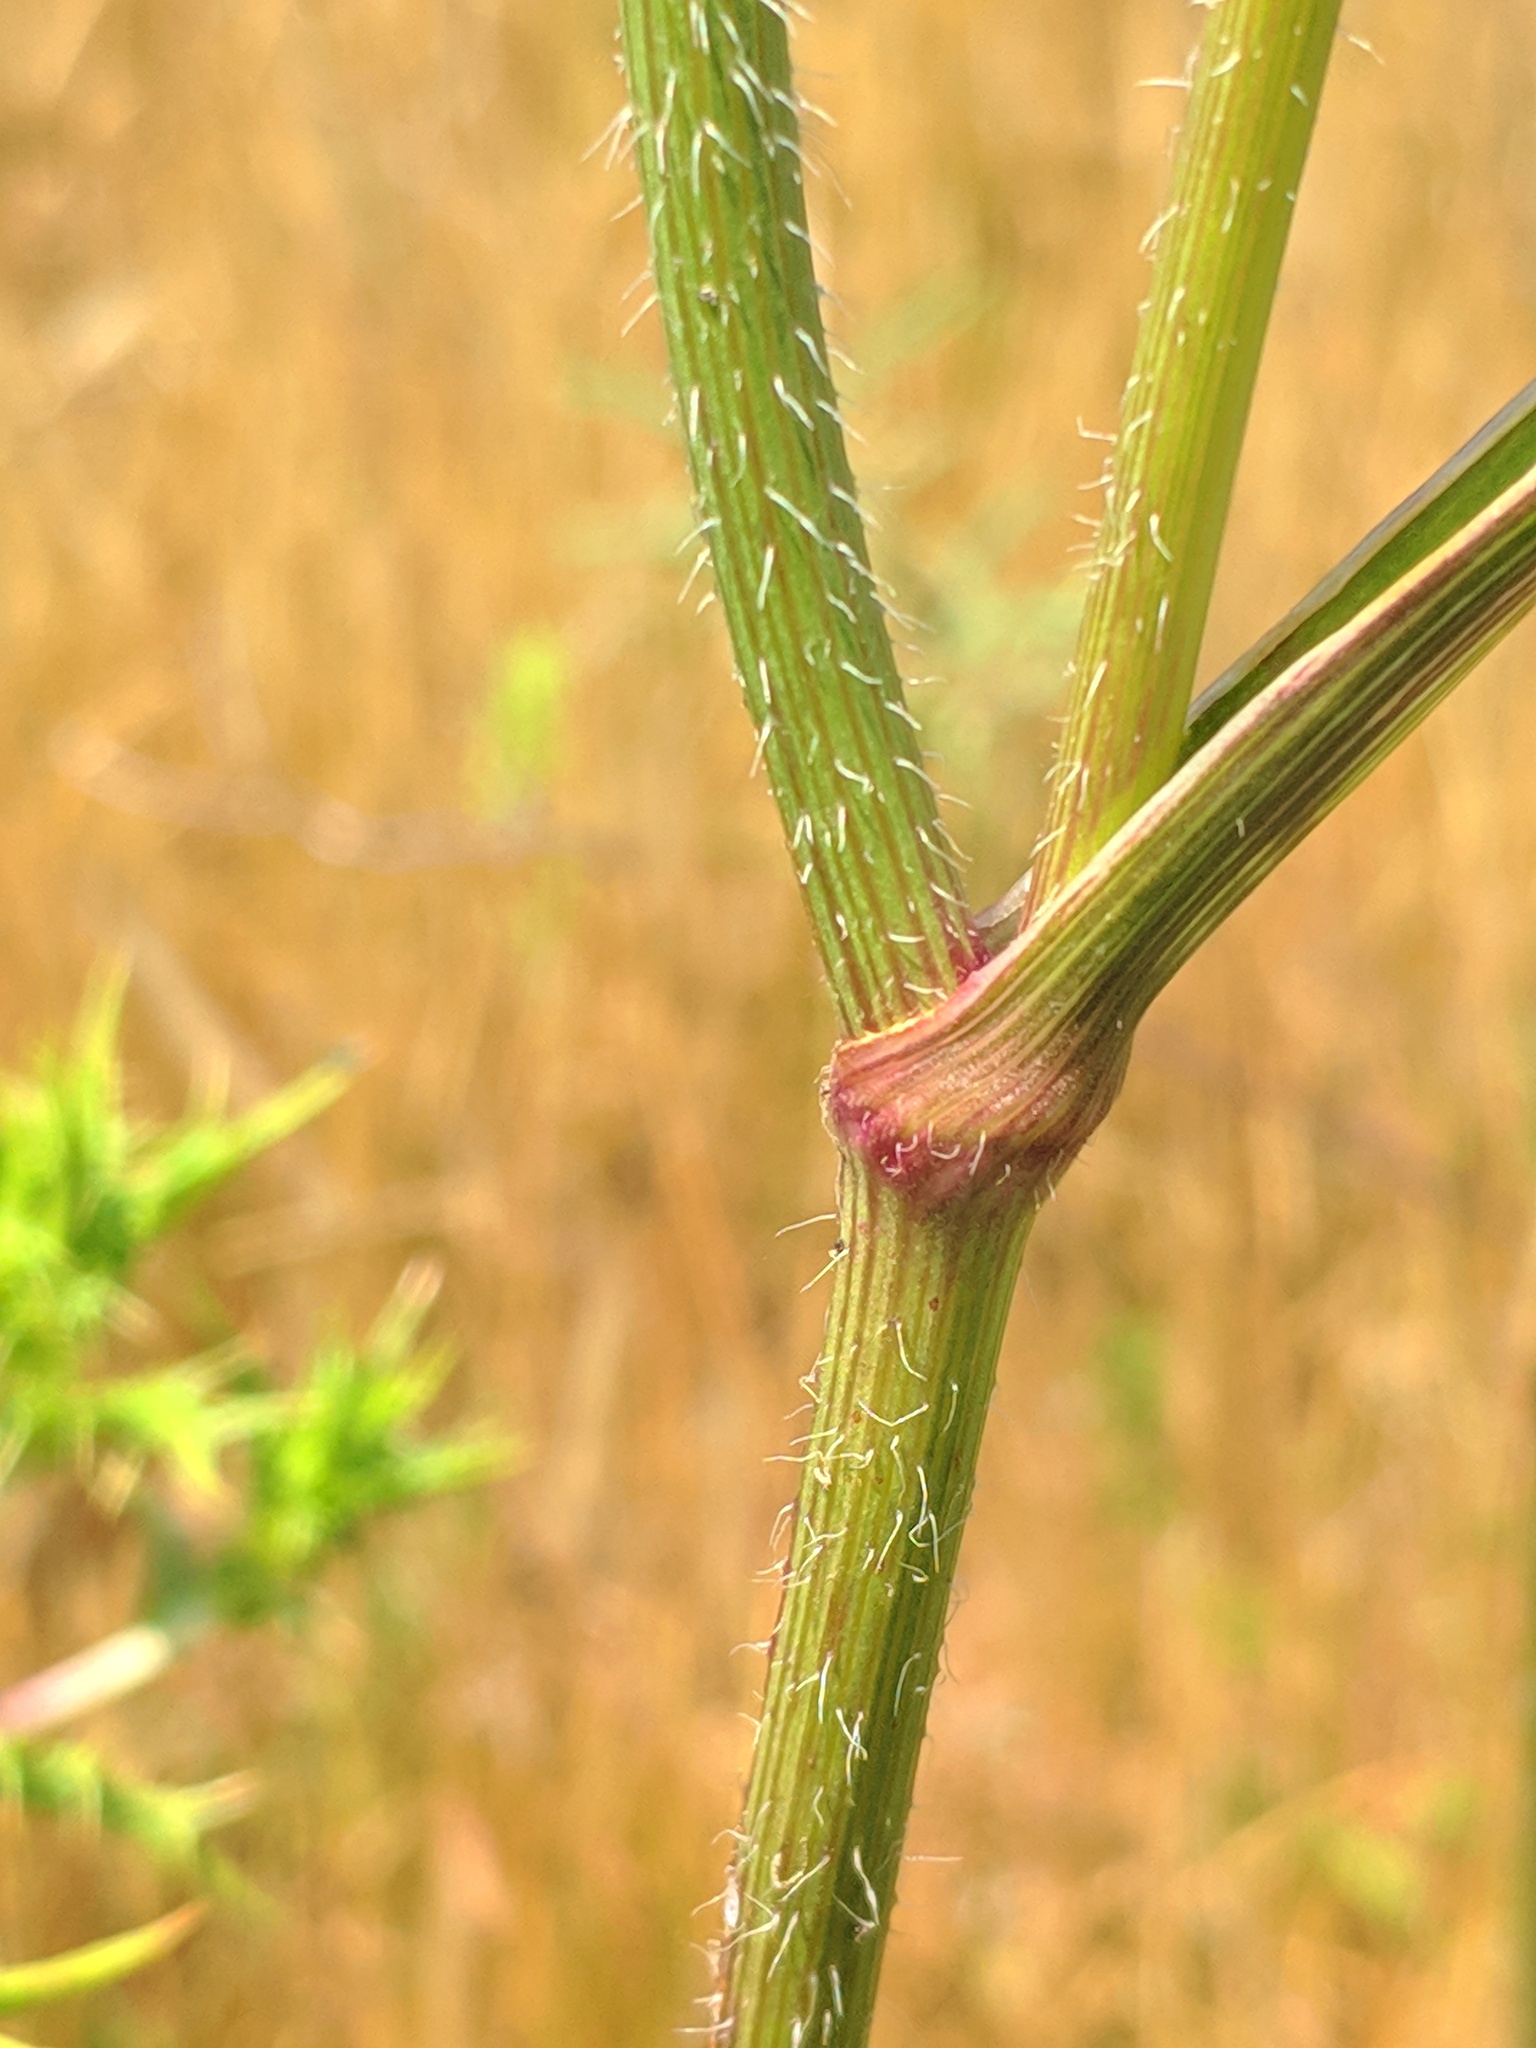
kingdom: Plantae
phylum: Tracheophyta
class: Magnoliopsida
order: Apiales
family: Apiaceae
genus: Daucus
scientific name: Daucus carota
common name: Wild carrot
